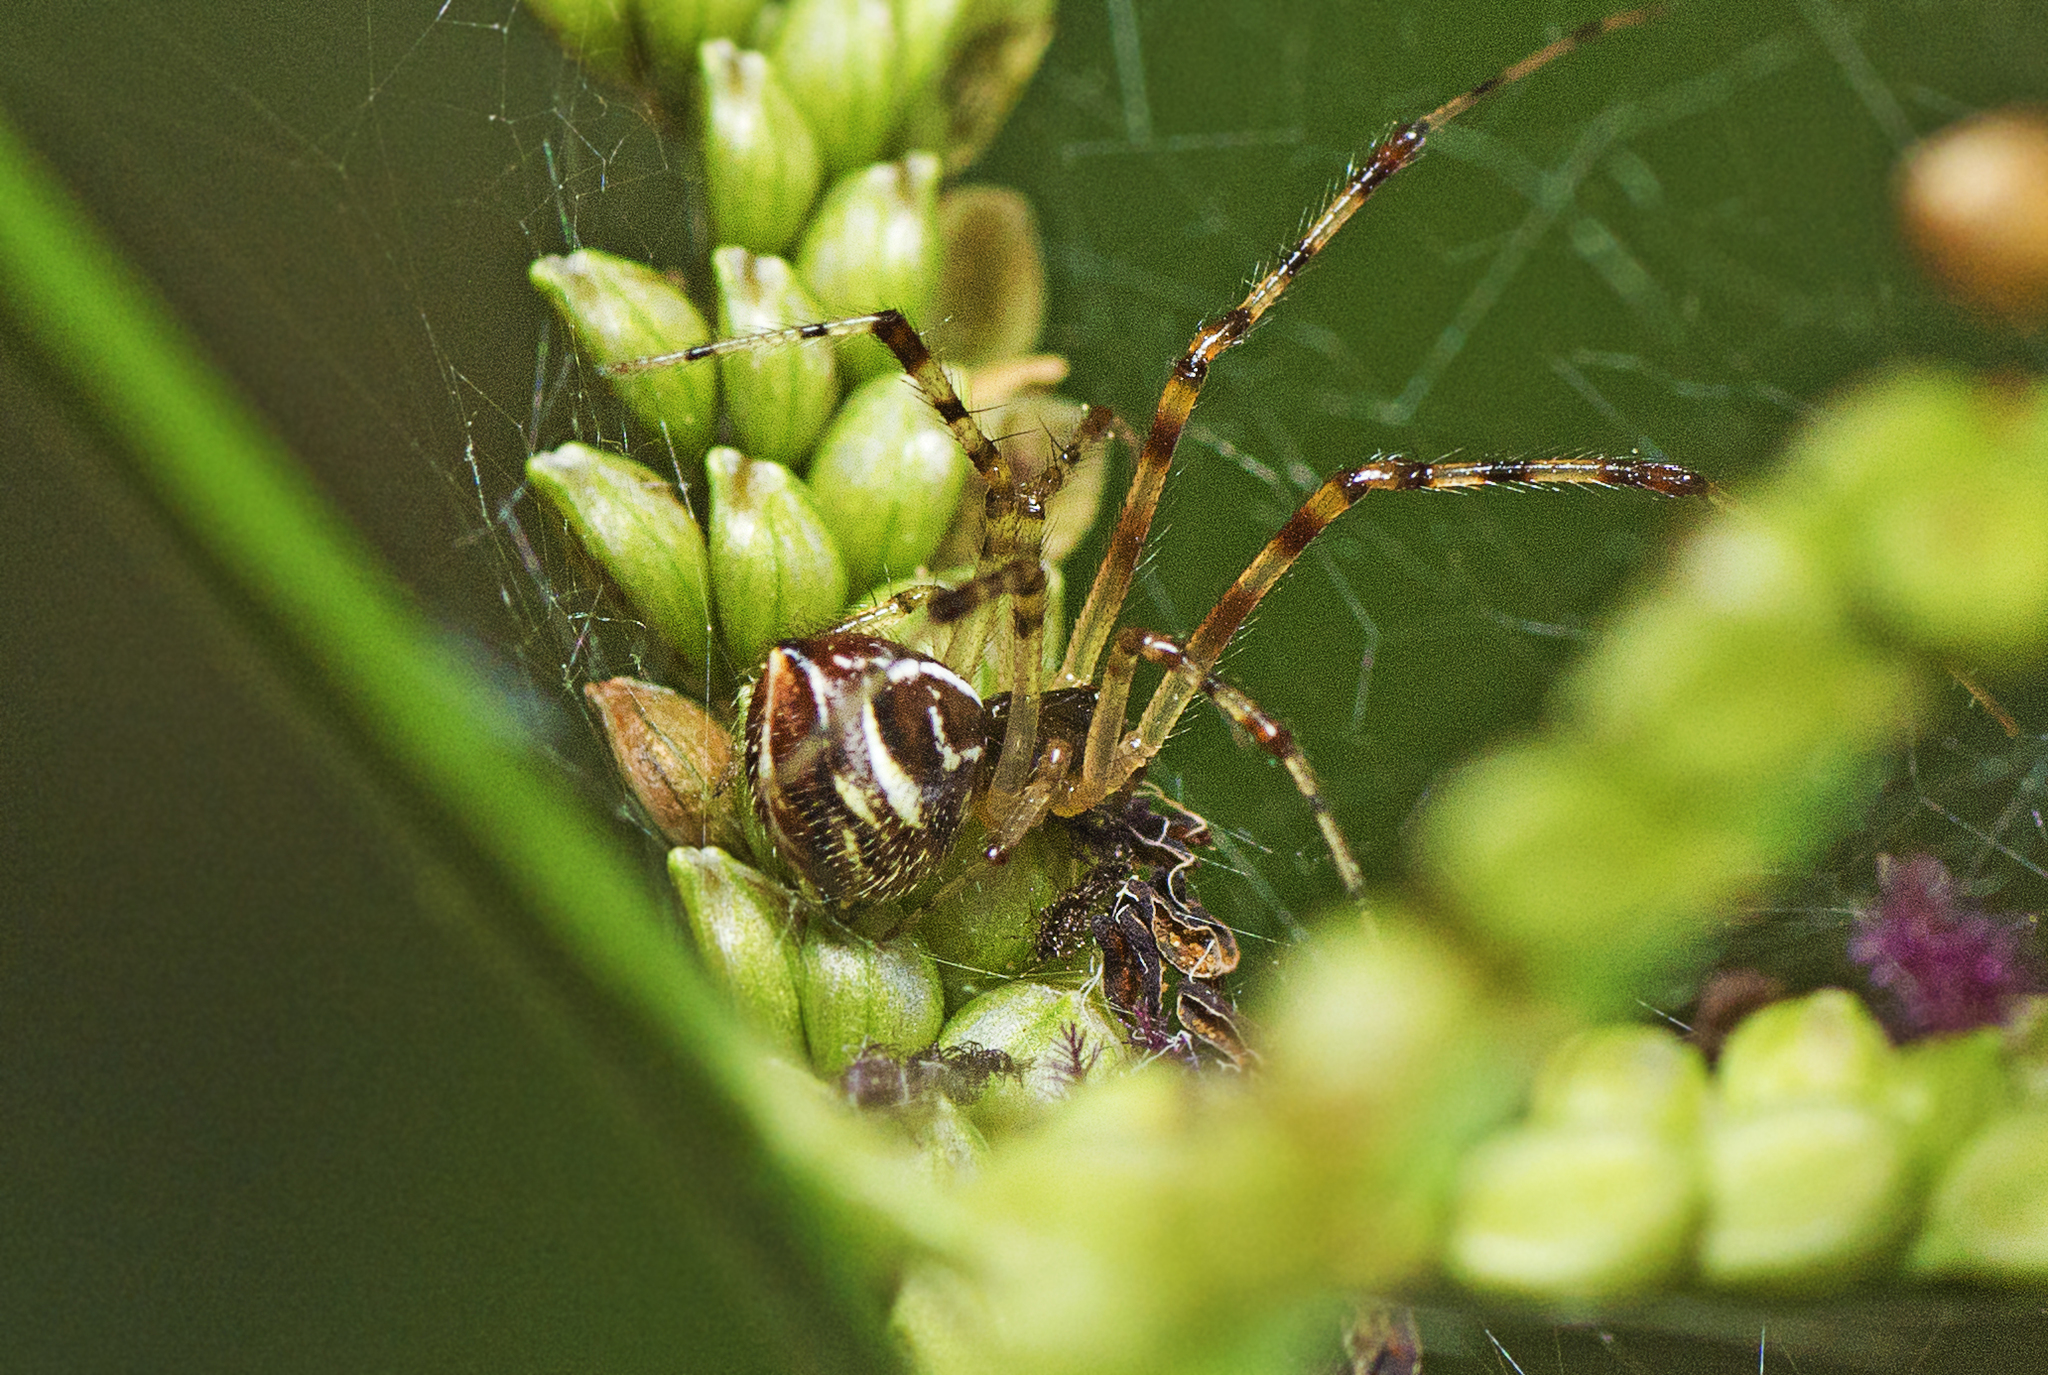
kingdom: Animalia
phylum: Arthropoda
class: Arachnida
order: Araneae
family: Theridiidae
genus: Theridion
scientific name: Theridion pyramidale
